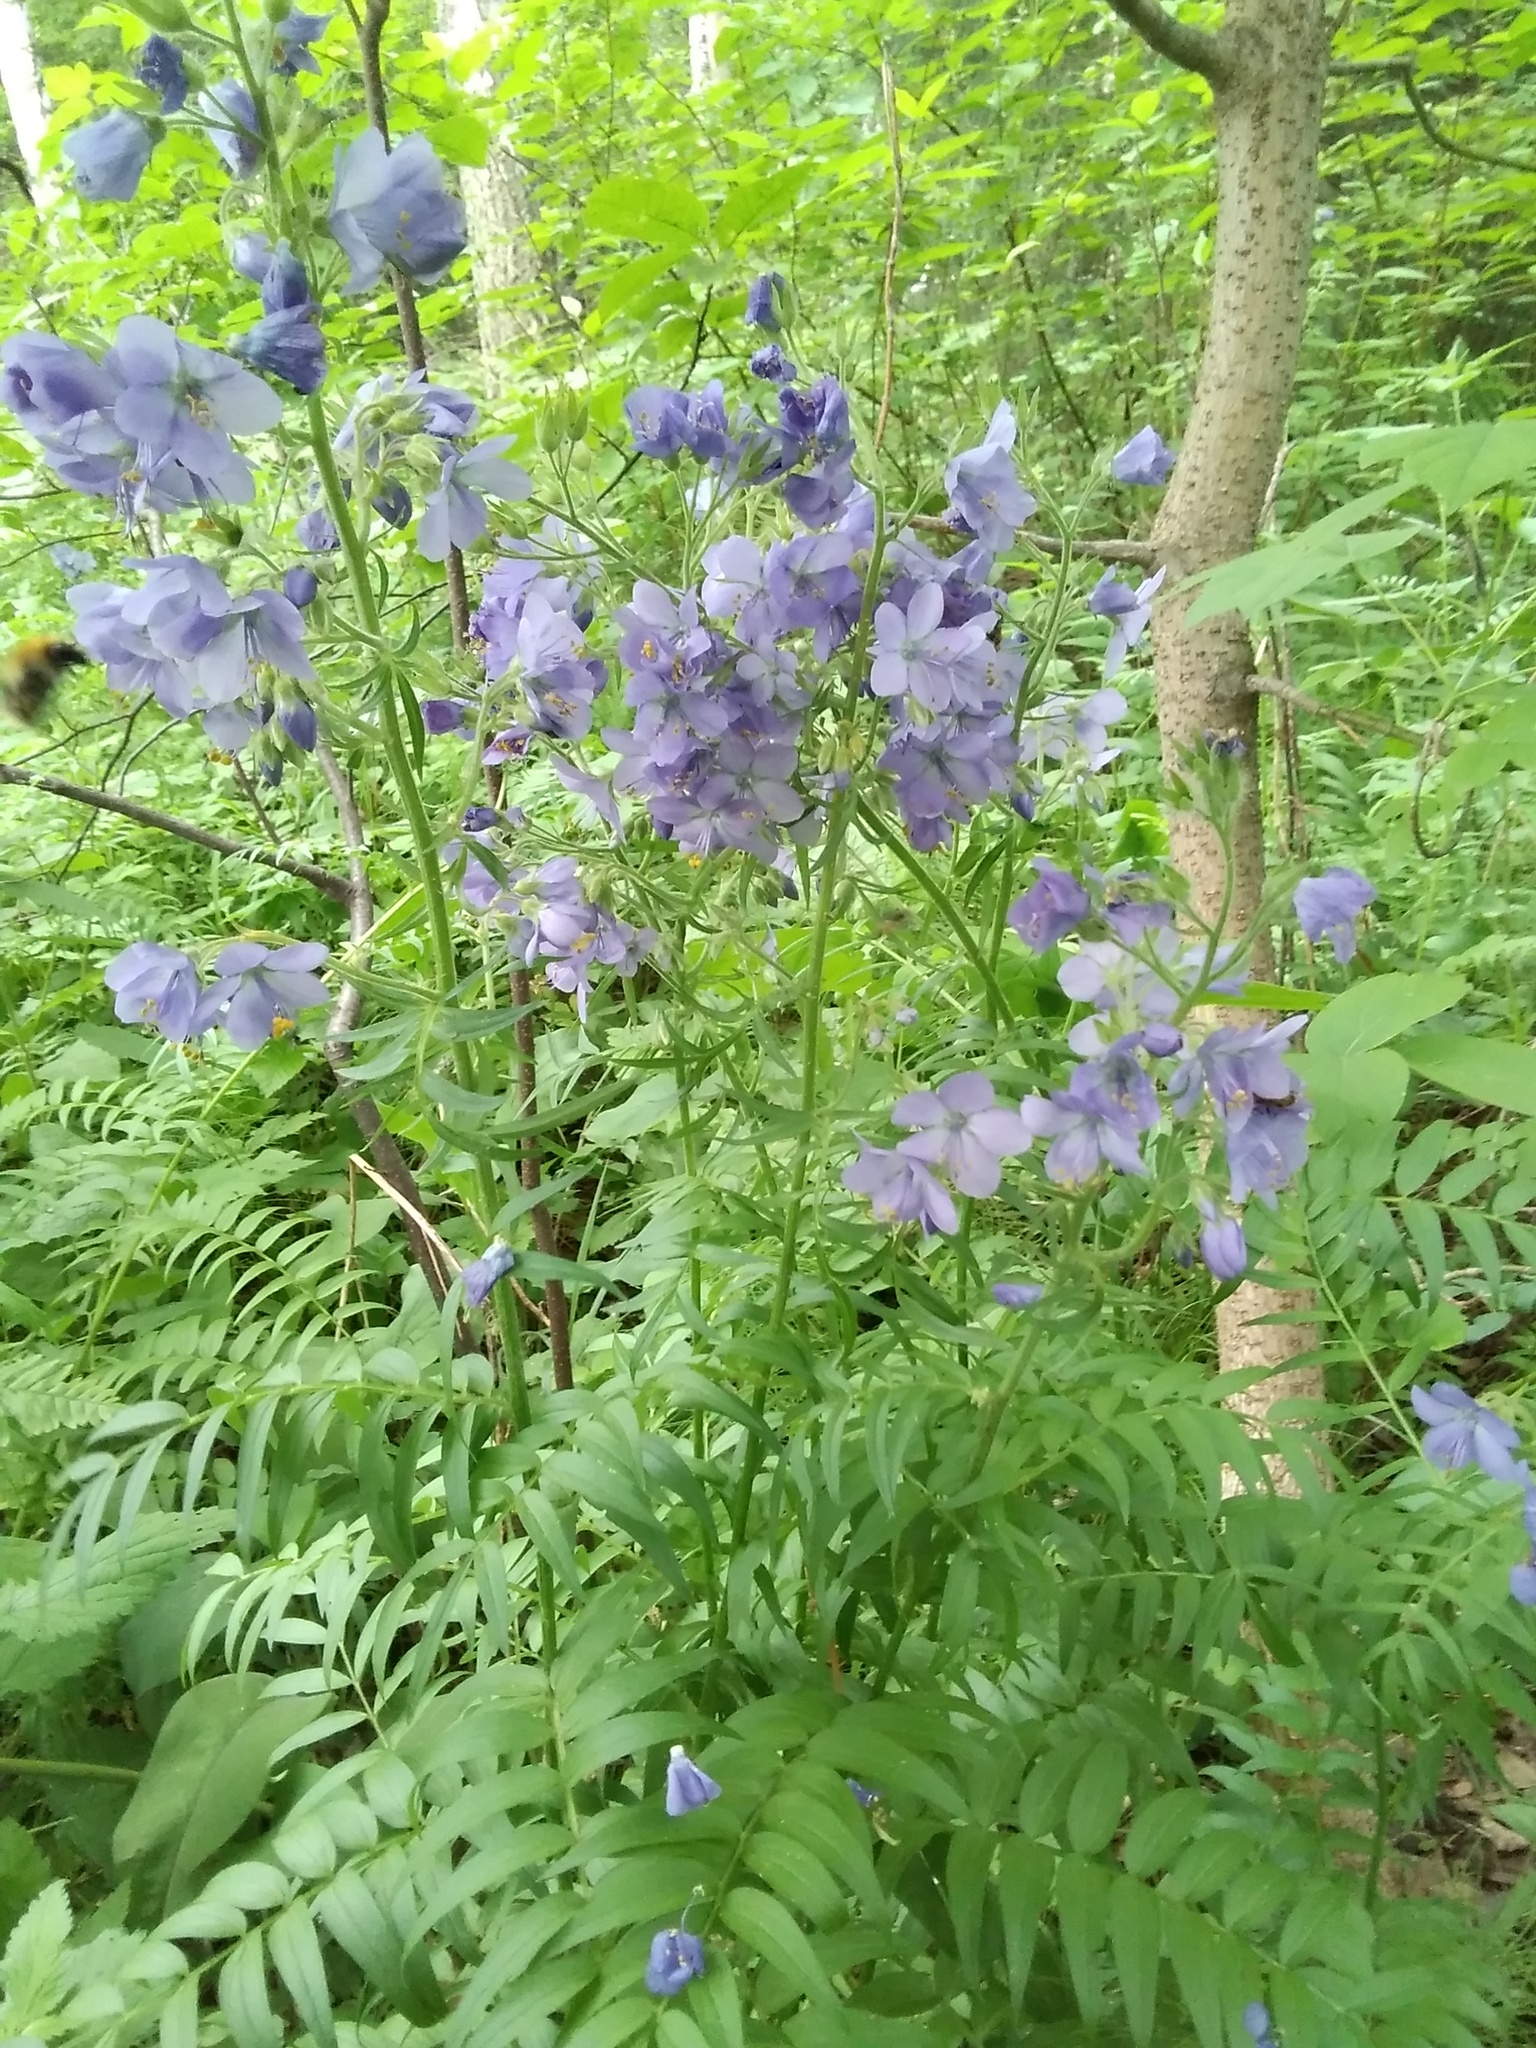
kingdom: Plantae
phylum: Tracheophyta
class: Magnoliopsida
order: Ericales
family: Polemoniaceae
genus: Polemonium
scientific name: Polemonium caeruleum
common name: Jacob's-ladder
